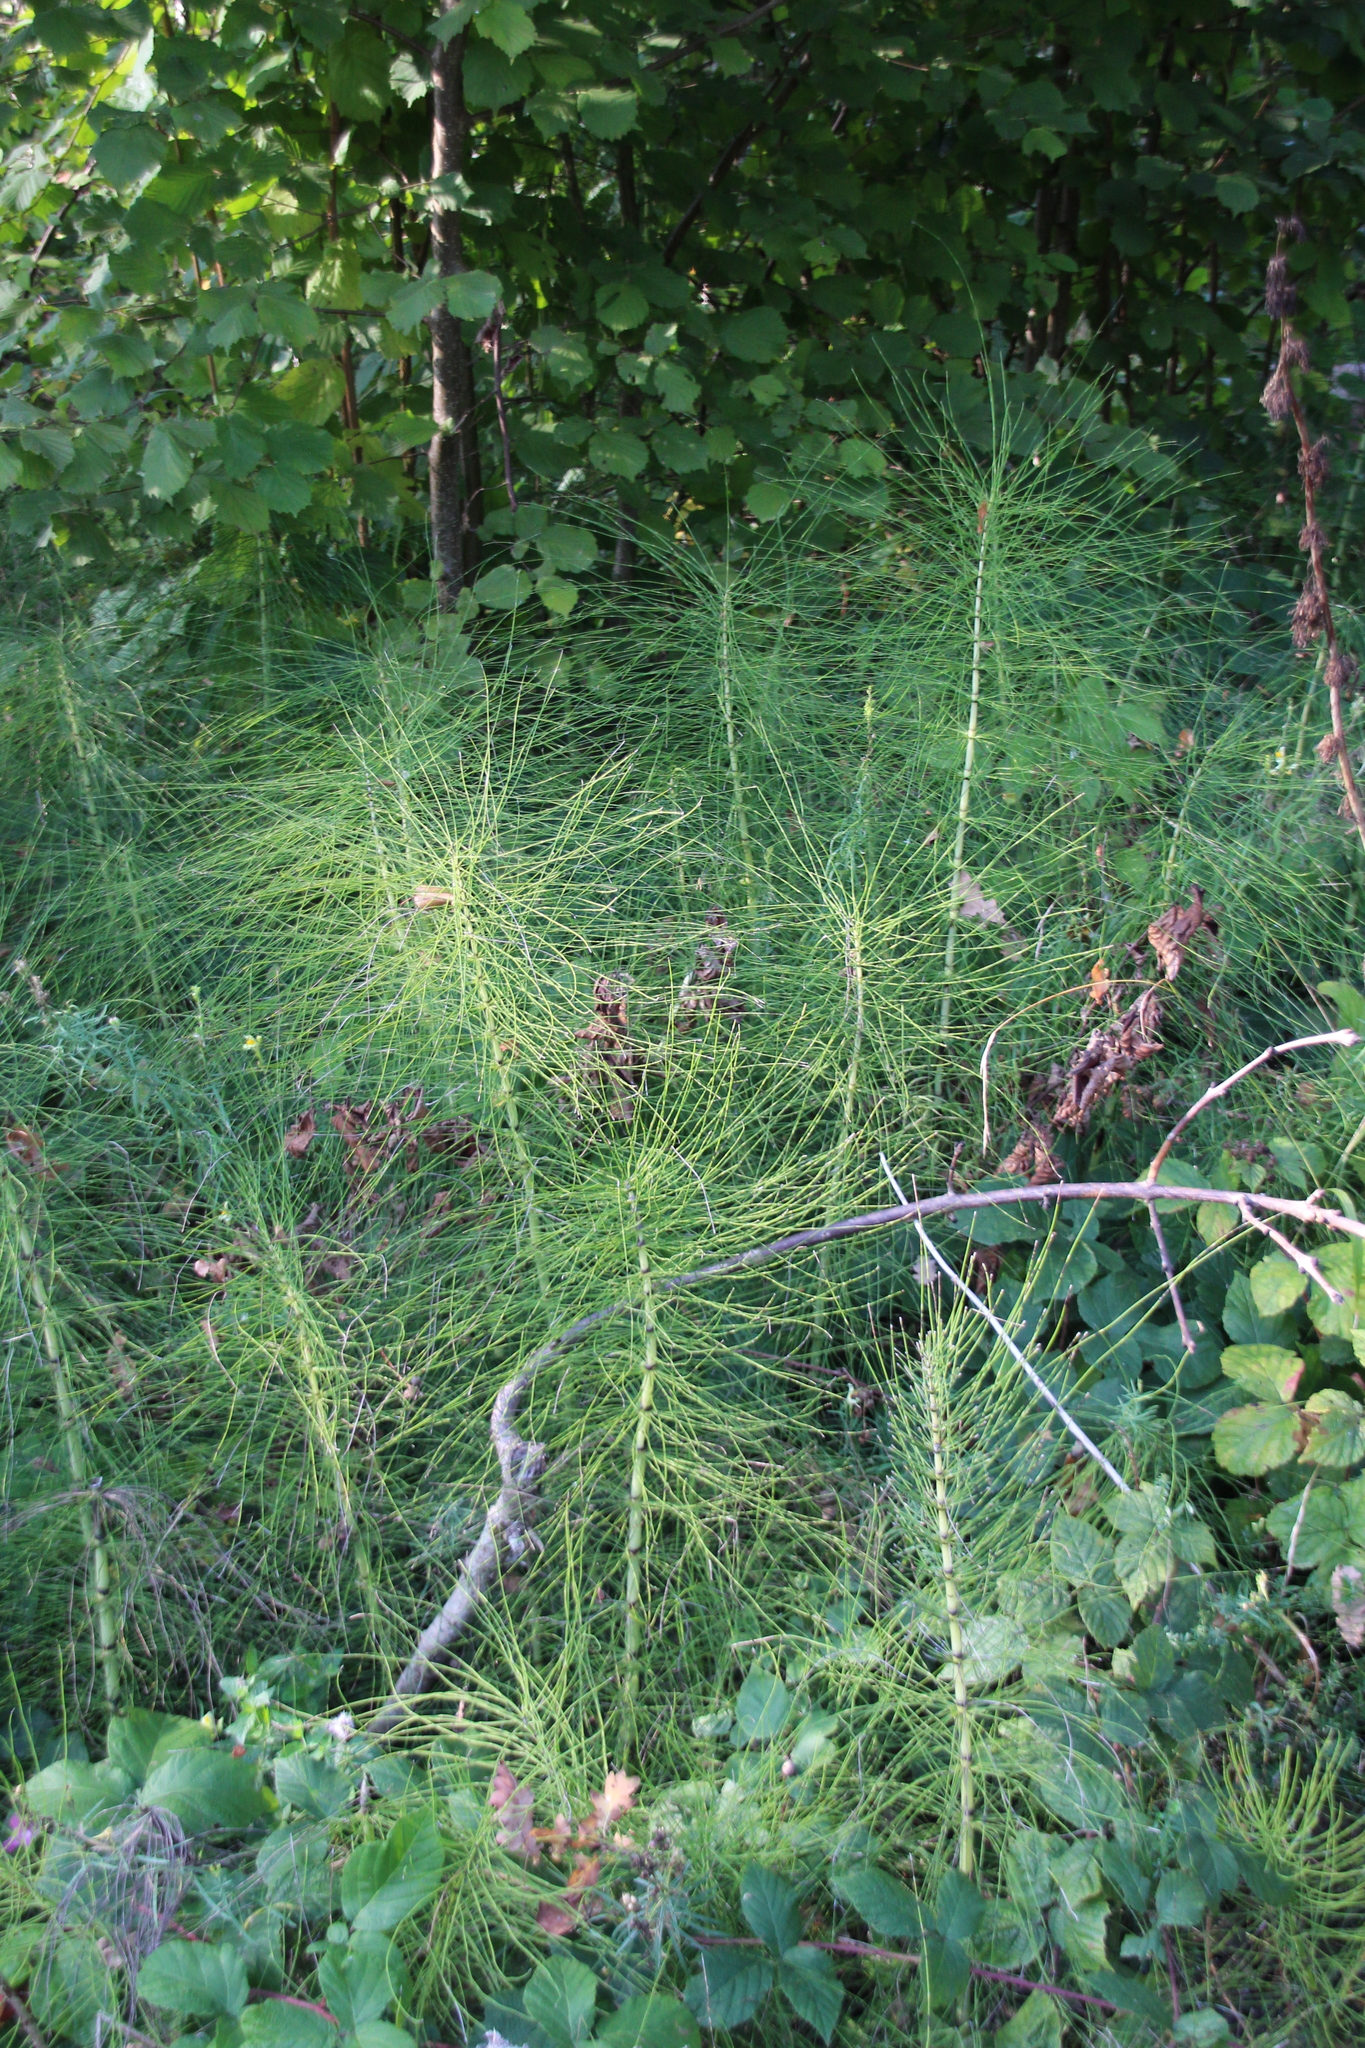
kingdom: Plantae
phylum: Tracheophyta
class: Polypodiopsida
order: Equisetales
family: Equisetaceae
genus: Equisetum
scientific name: Equisetum telmateia
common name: Great horsetail
